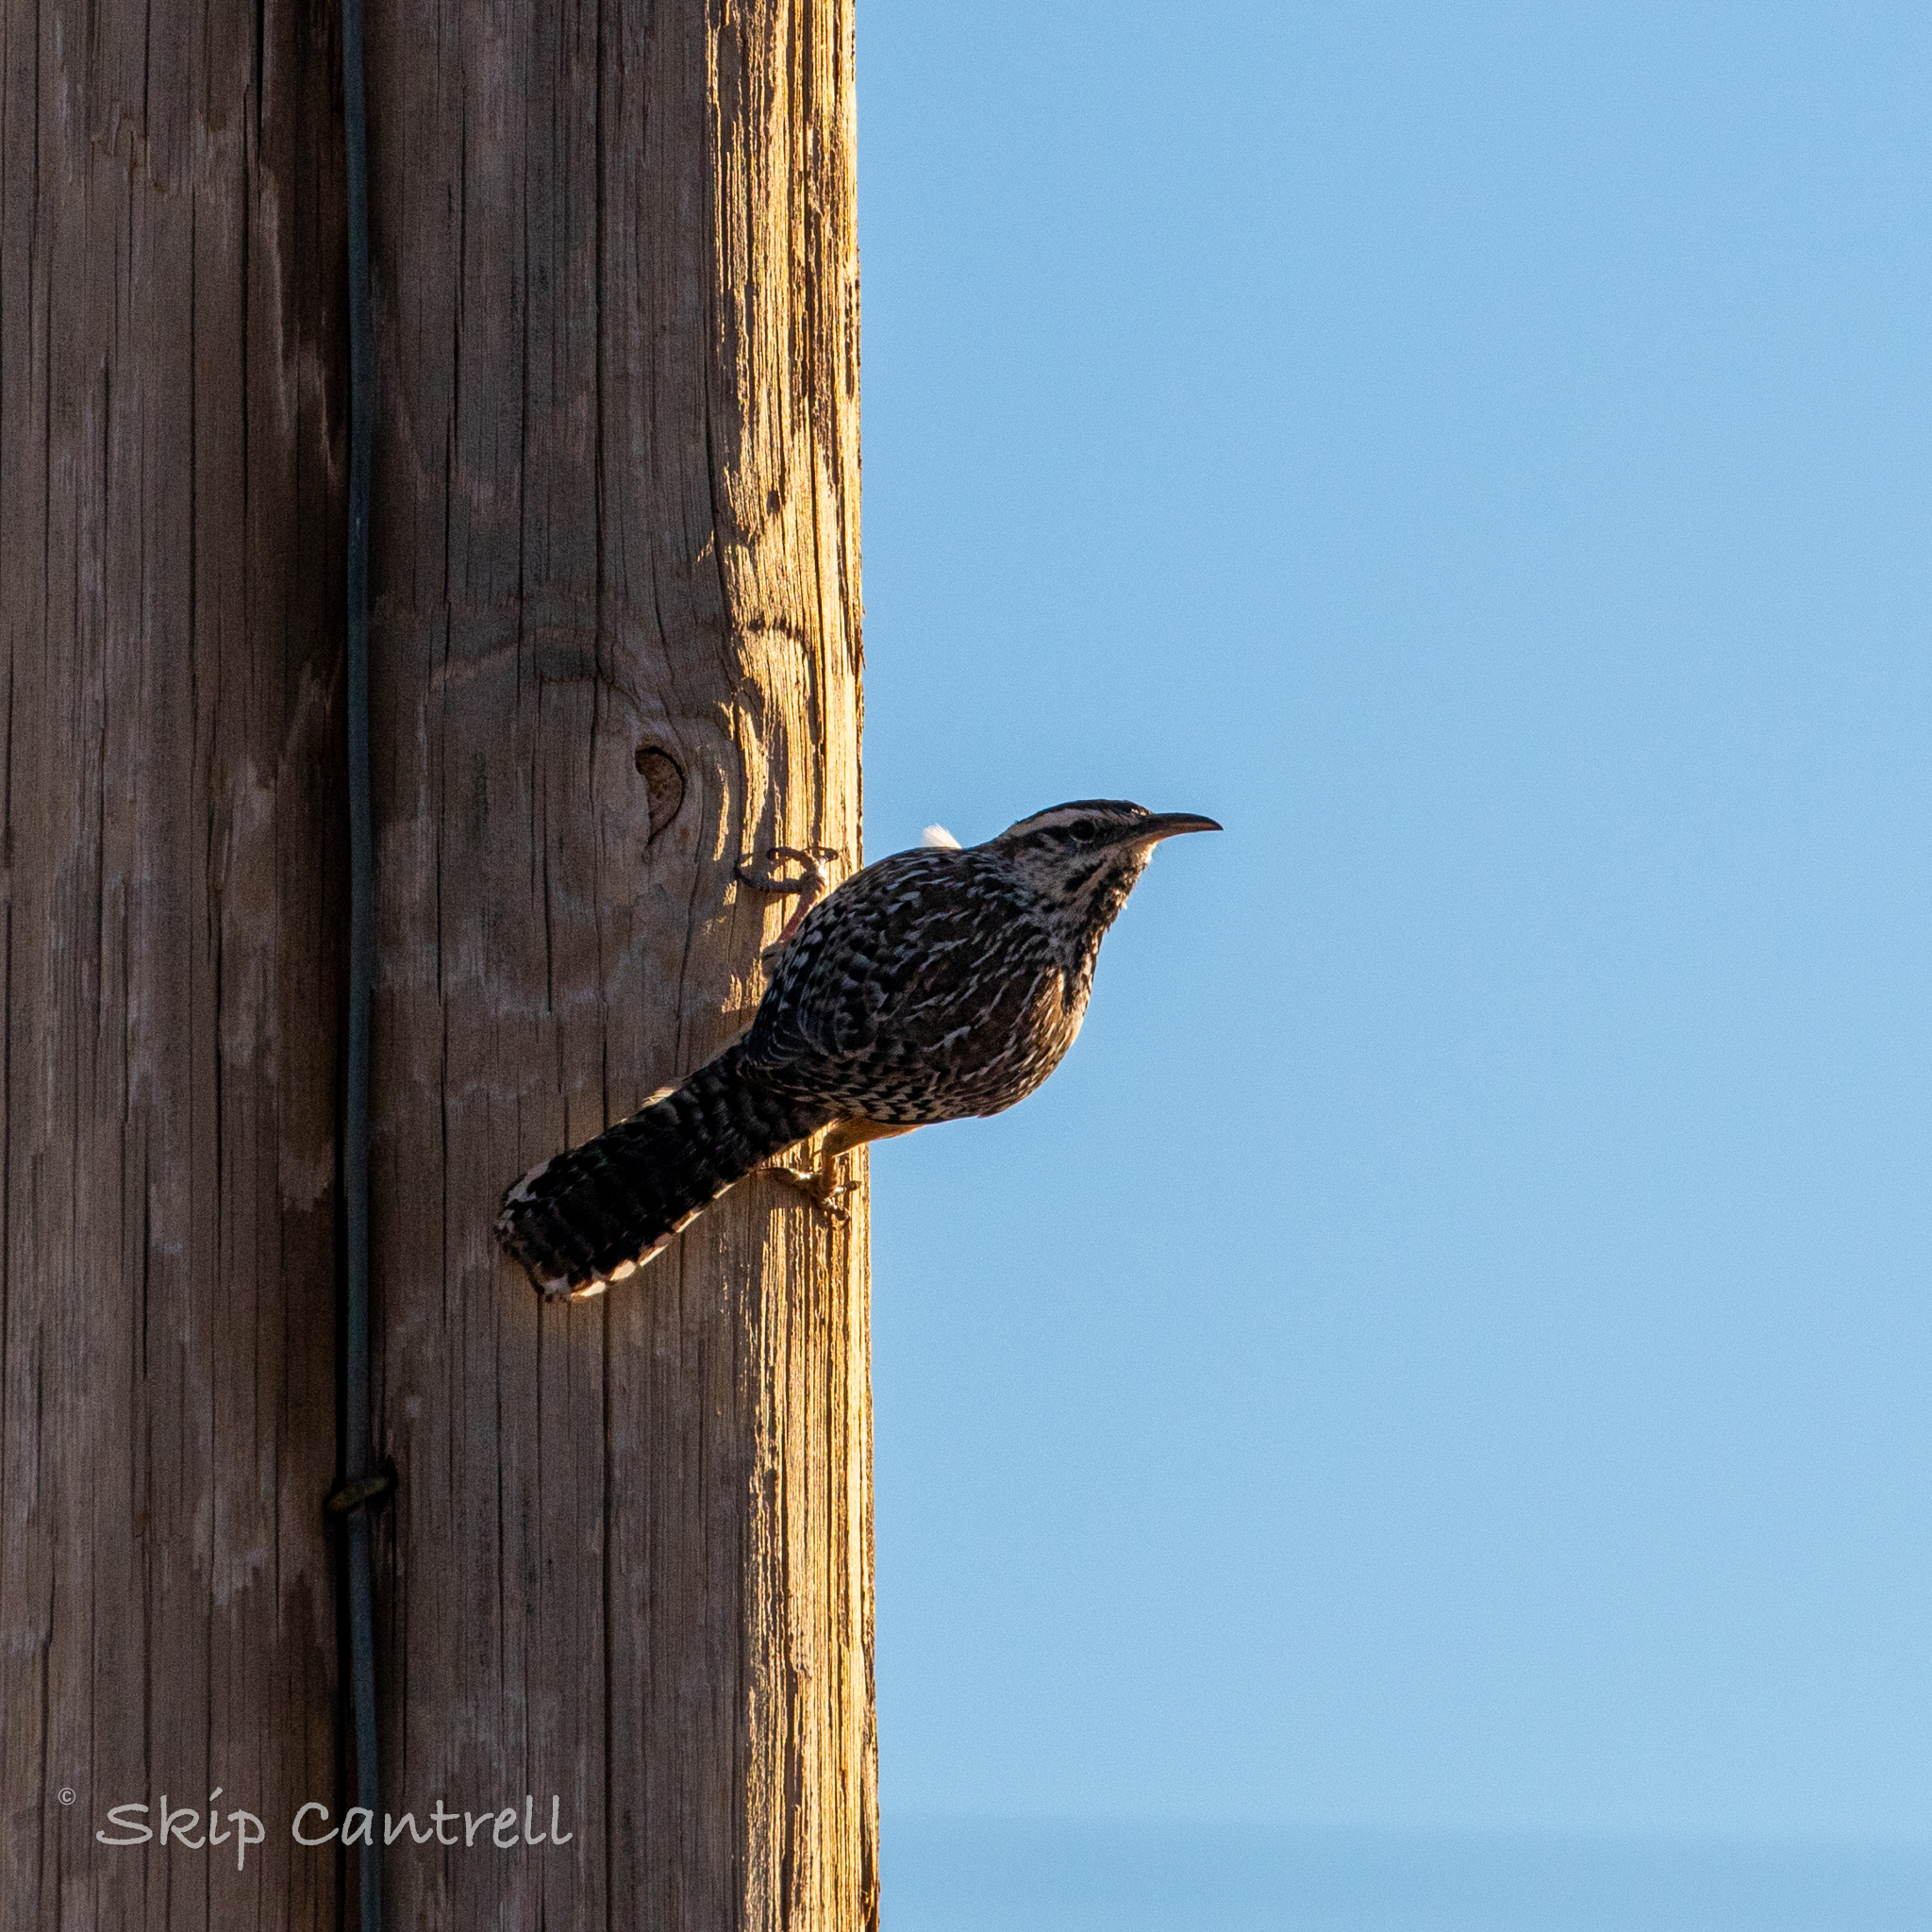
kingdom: Animalia
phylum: Chordata
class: Aves
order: Passeriformes
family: Troglodytidae
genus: Campylorhynchus
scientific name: Campylorhynchus brunneicapillus
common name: Cactus wren
